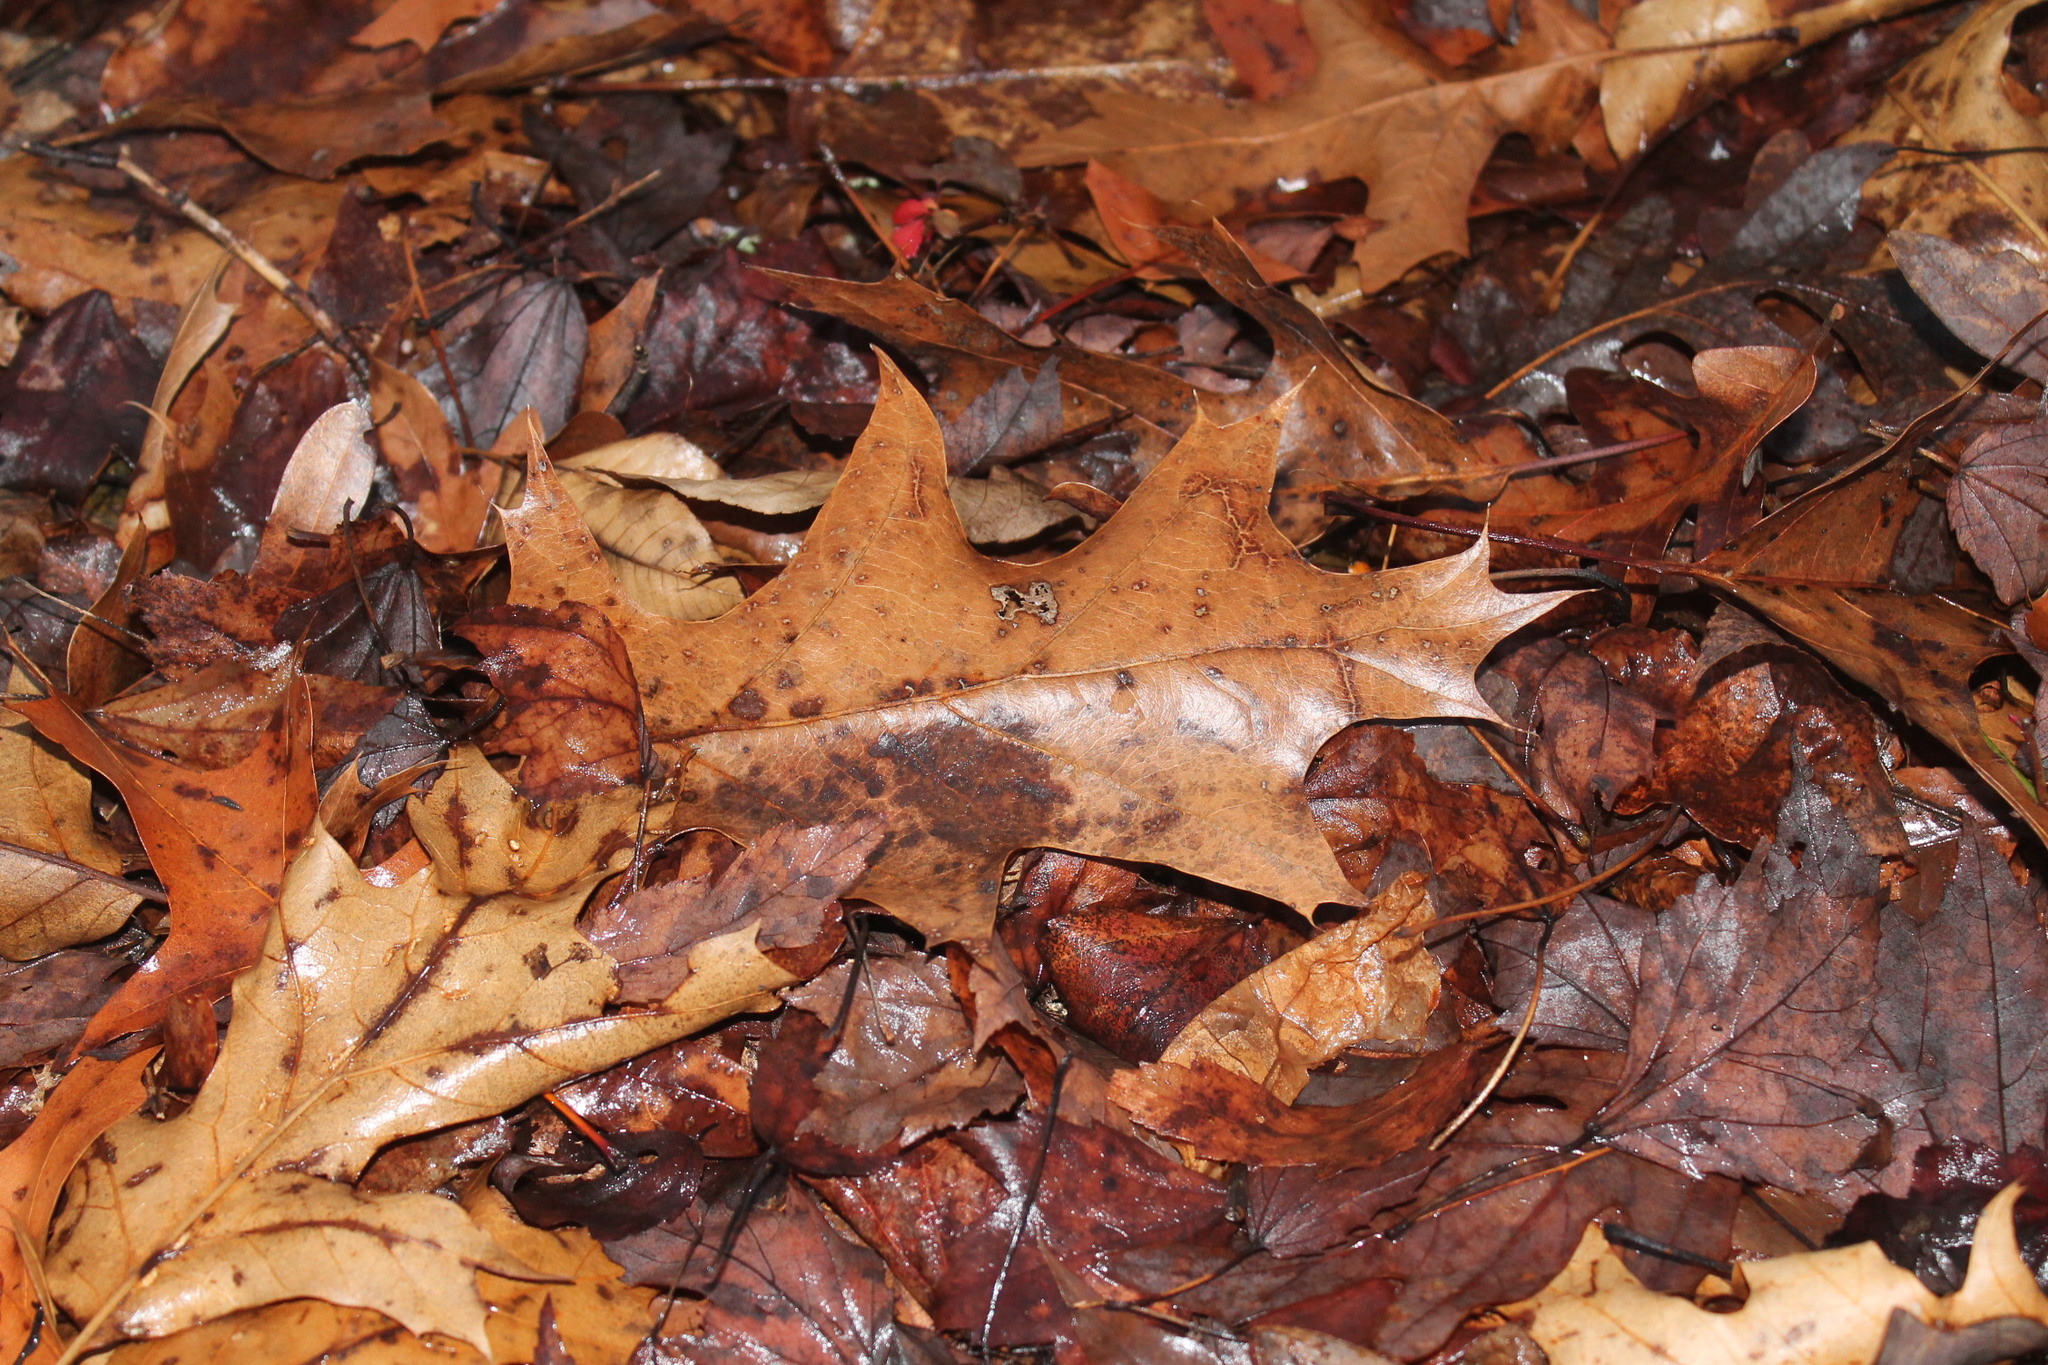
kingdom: Plantae
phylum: Tracheophyta
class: Magnoliopsida
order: Fagales
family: Fagaceae
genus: Quercus
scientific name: Quercus rubra
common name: Red oak
